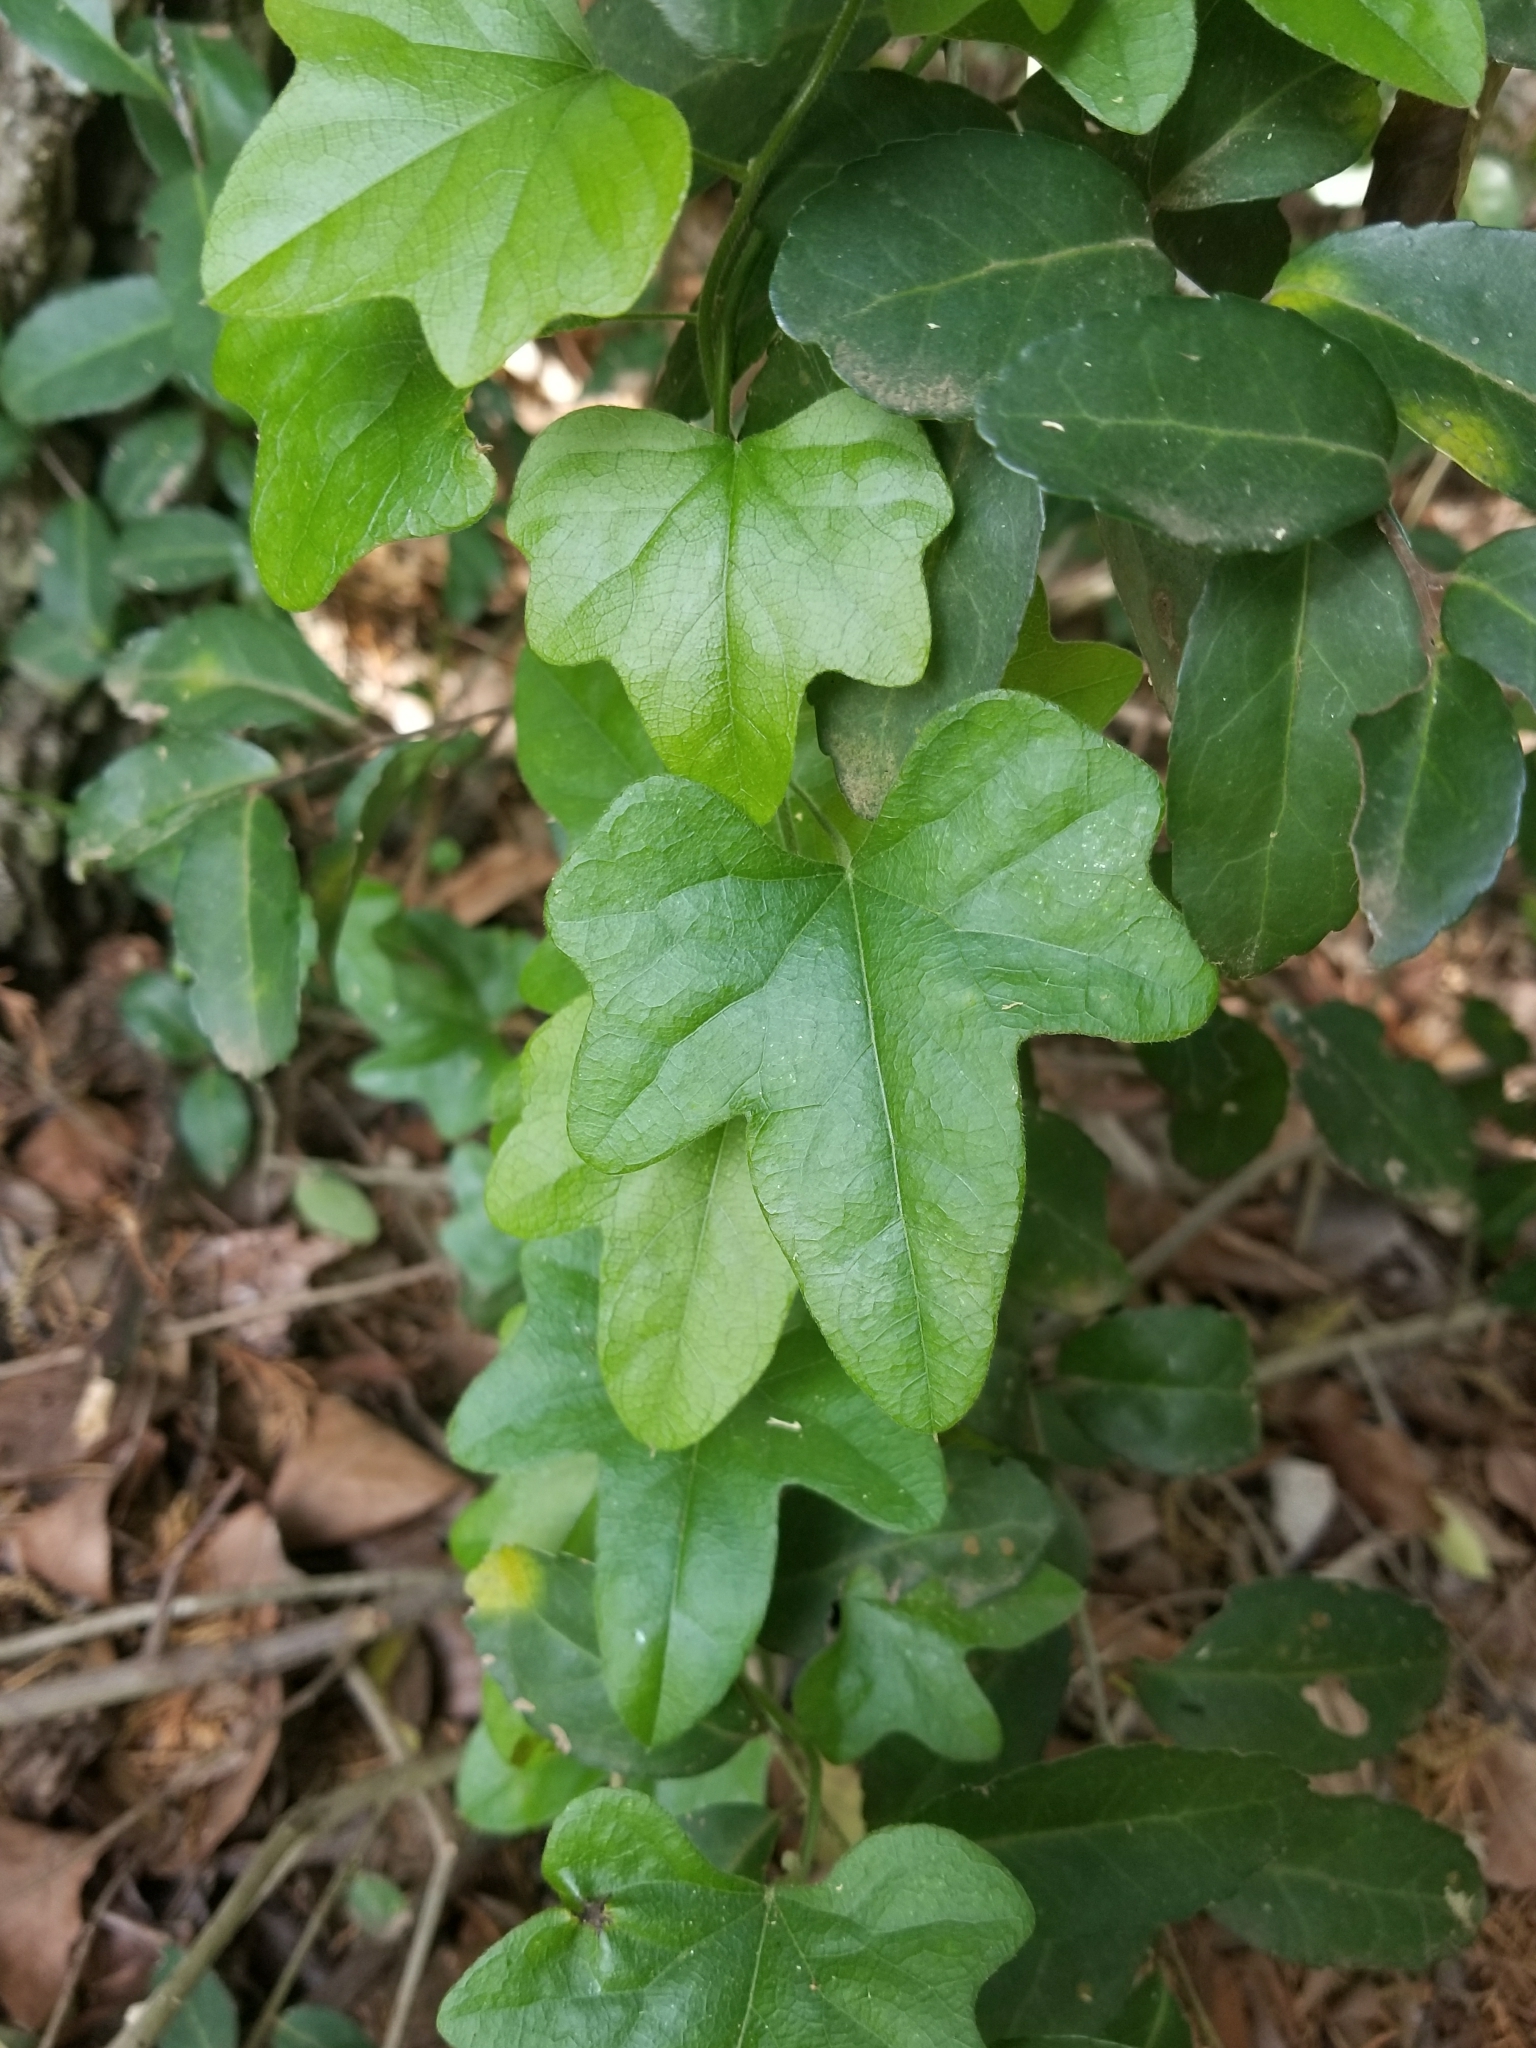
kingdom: Plantae
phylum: Tracheophyta
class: Magnoliopsida
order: Ranunculales
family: Menispermaceae
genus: Cocculus
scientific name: Cocculus carolinus
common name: Carolina moonseed
